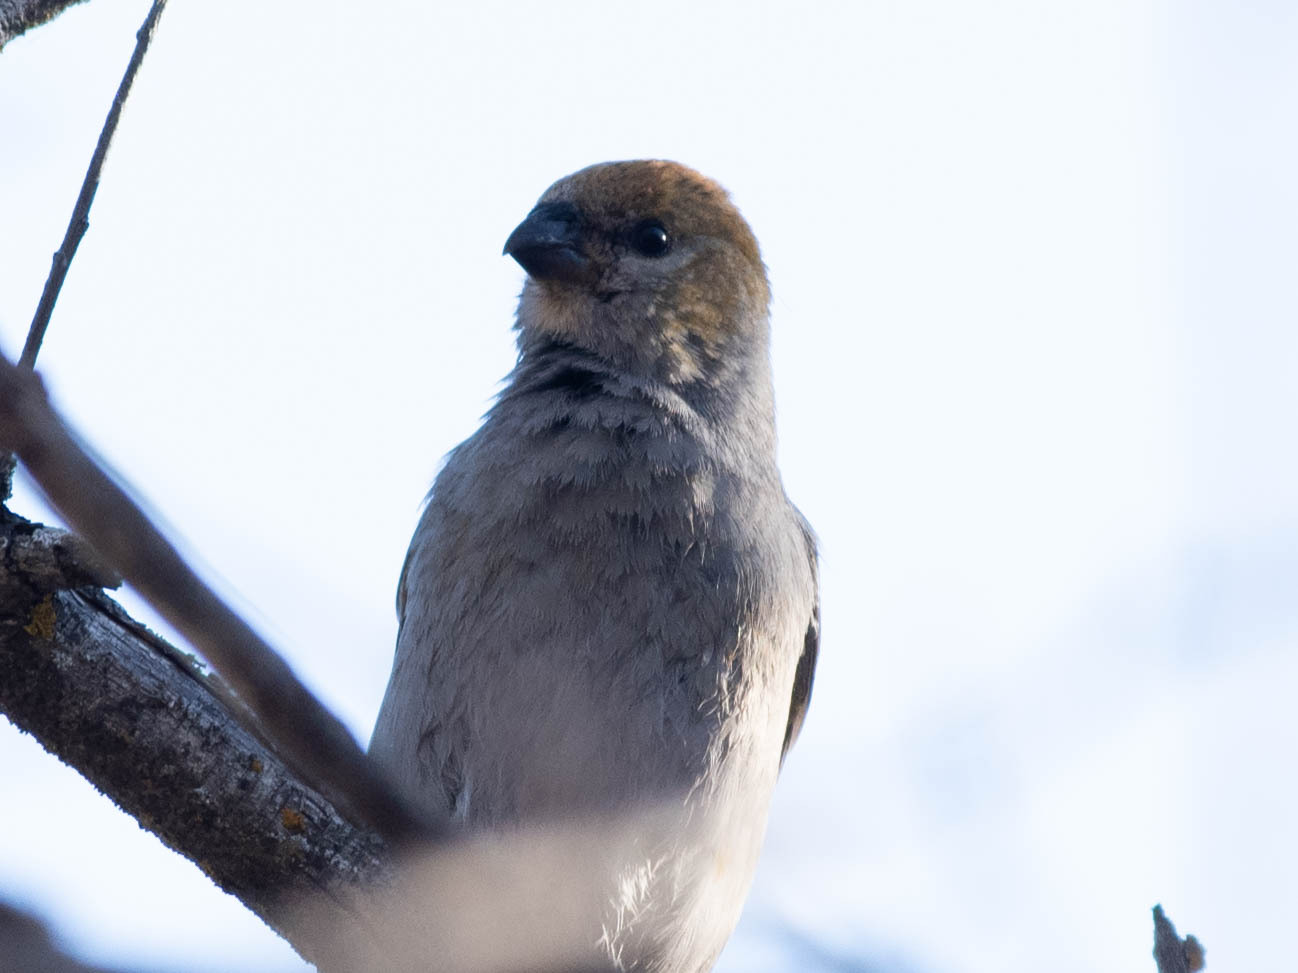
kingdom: Animalia
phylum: Chordata
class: Aves
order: Passeriformes
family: Fringillidae
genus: Pinicola
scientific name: Pinicola enucleator
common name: Pine grosbeak
